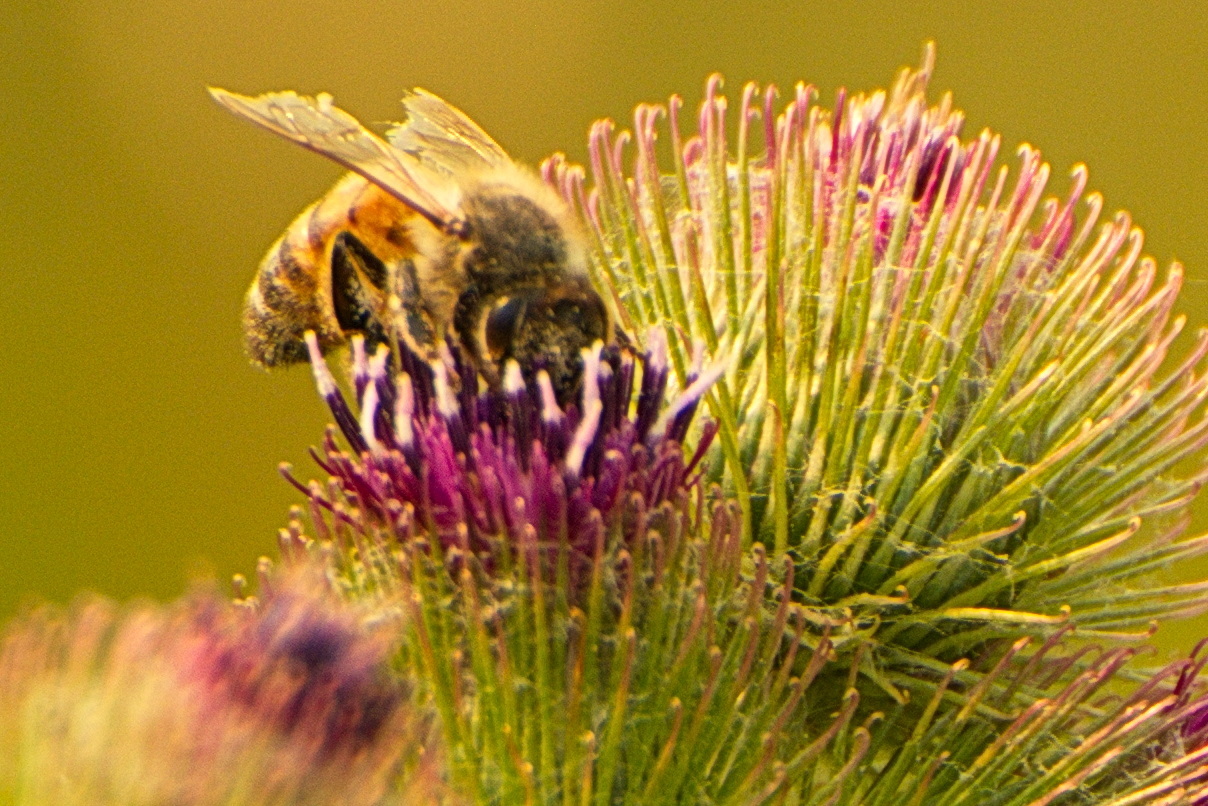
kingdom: Animalia
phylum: Arthropoda
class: Insecta
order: Hymenoptera
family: Apidae
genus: Apis
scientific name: Apis mellifera
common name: Honey bee
